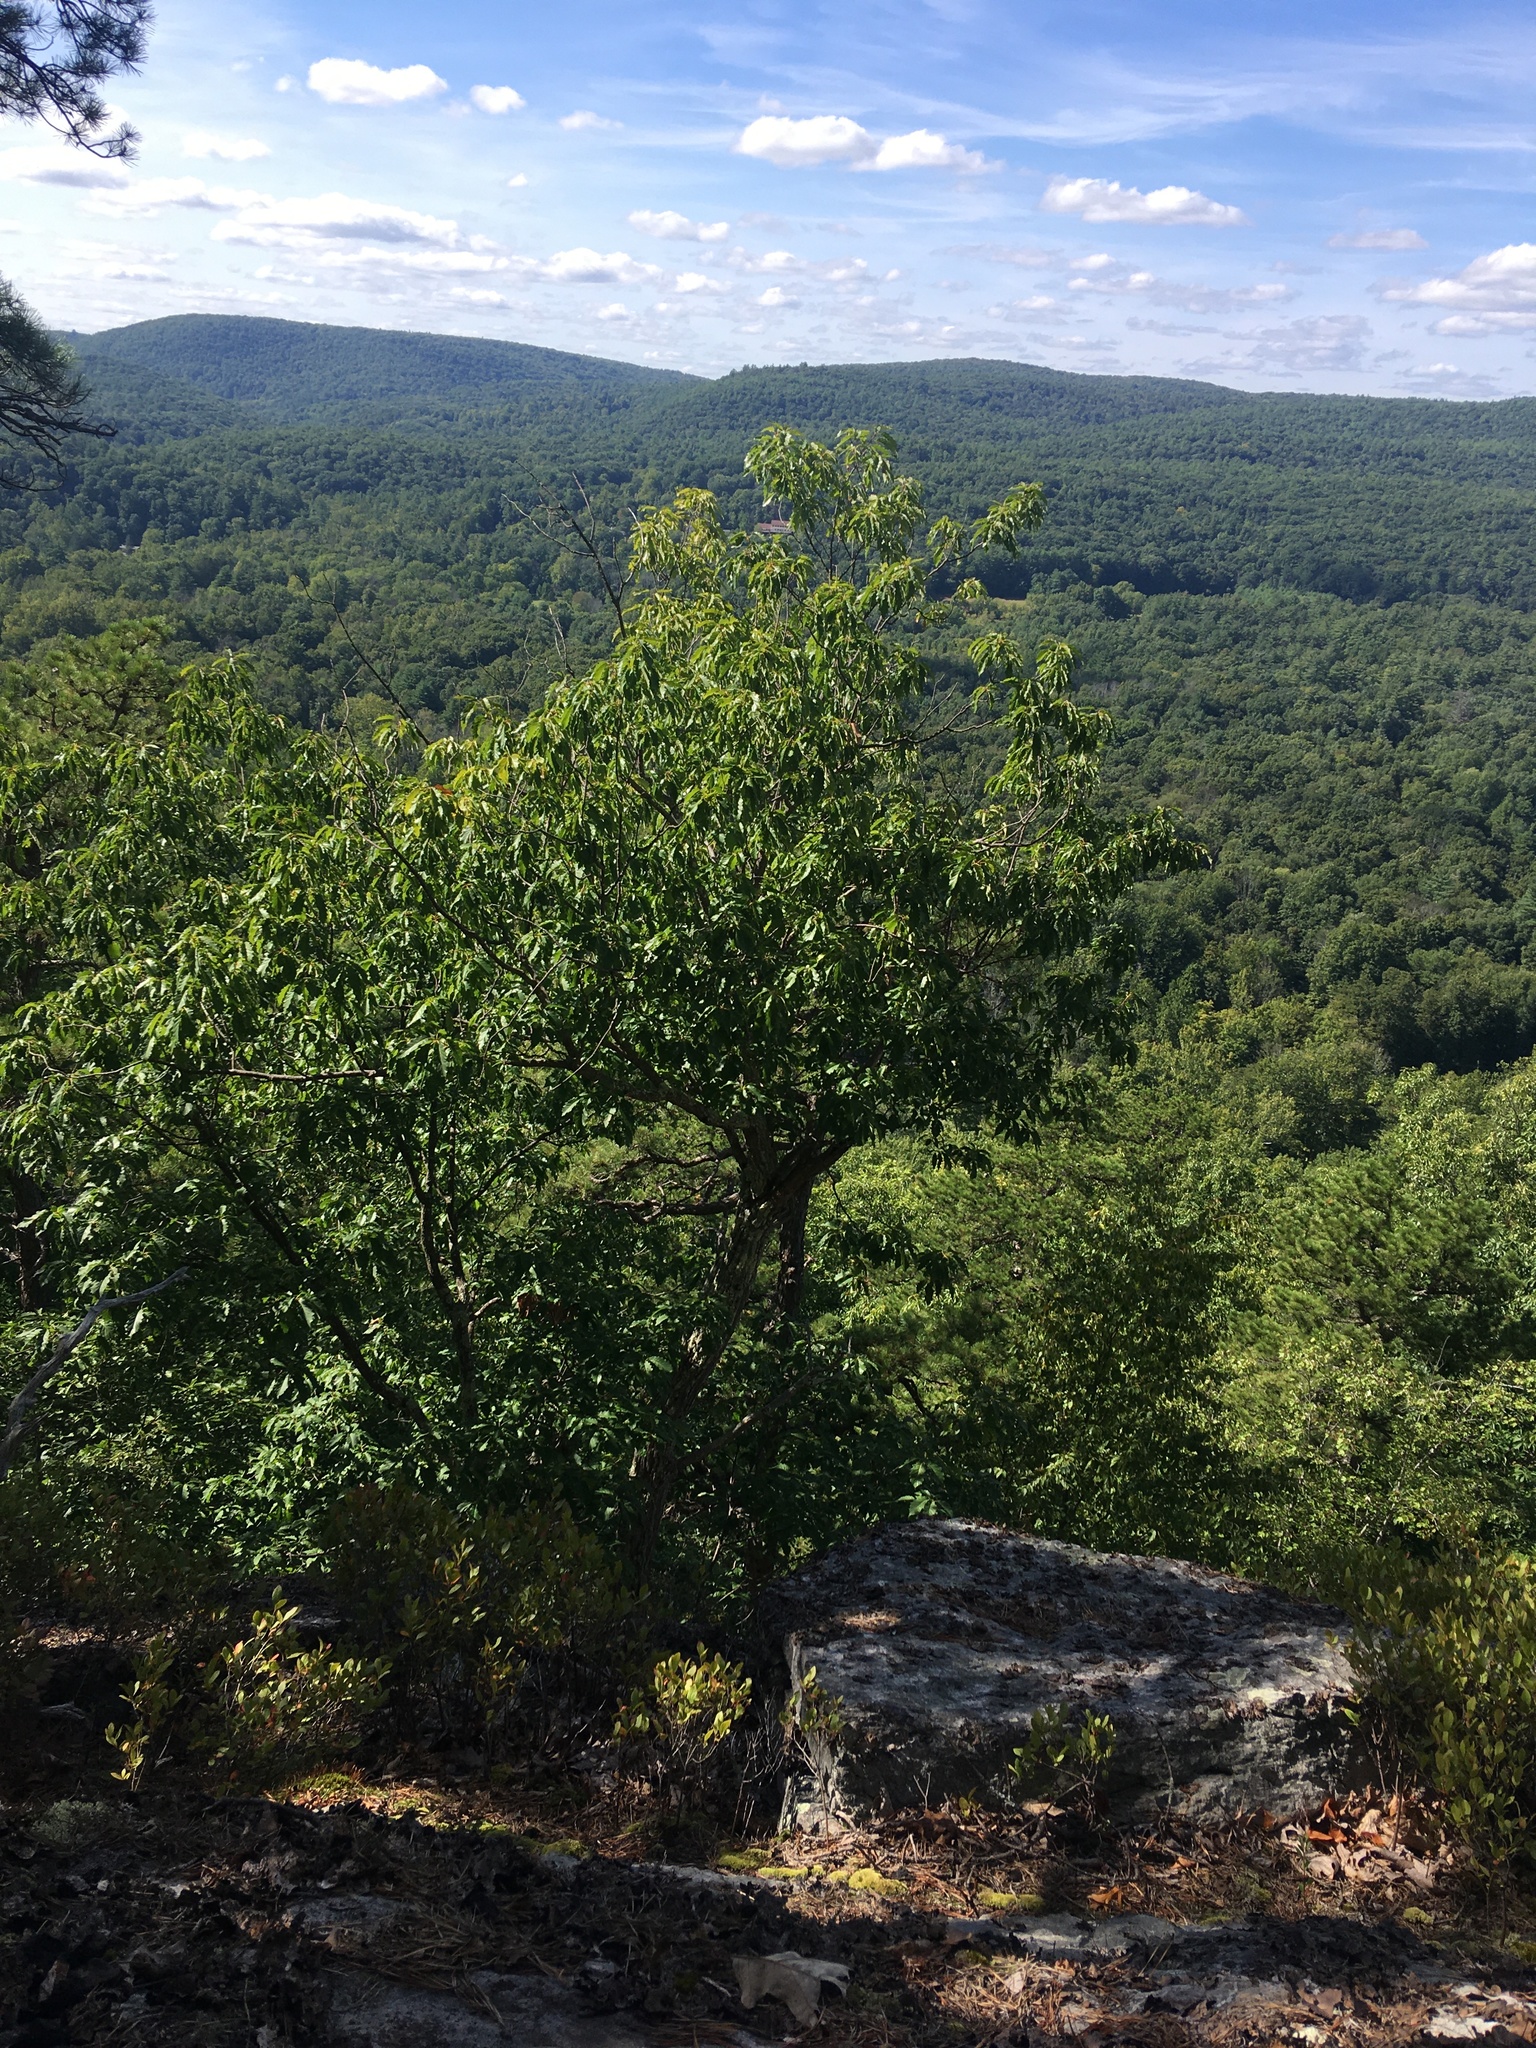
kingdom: Plantae
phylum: Tracheophyta
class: Magnoliopsida
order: Fagales
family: Fagaceae
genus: Quercus
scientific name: Quercus montana
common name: Chestnut oak
